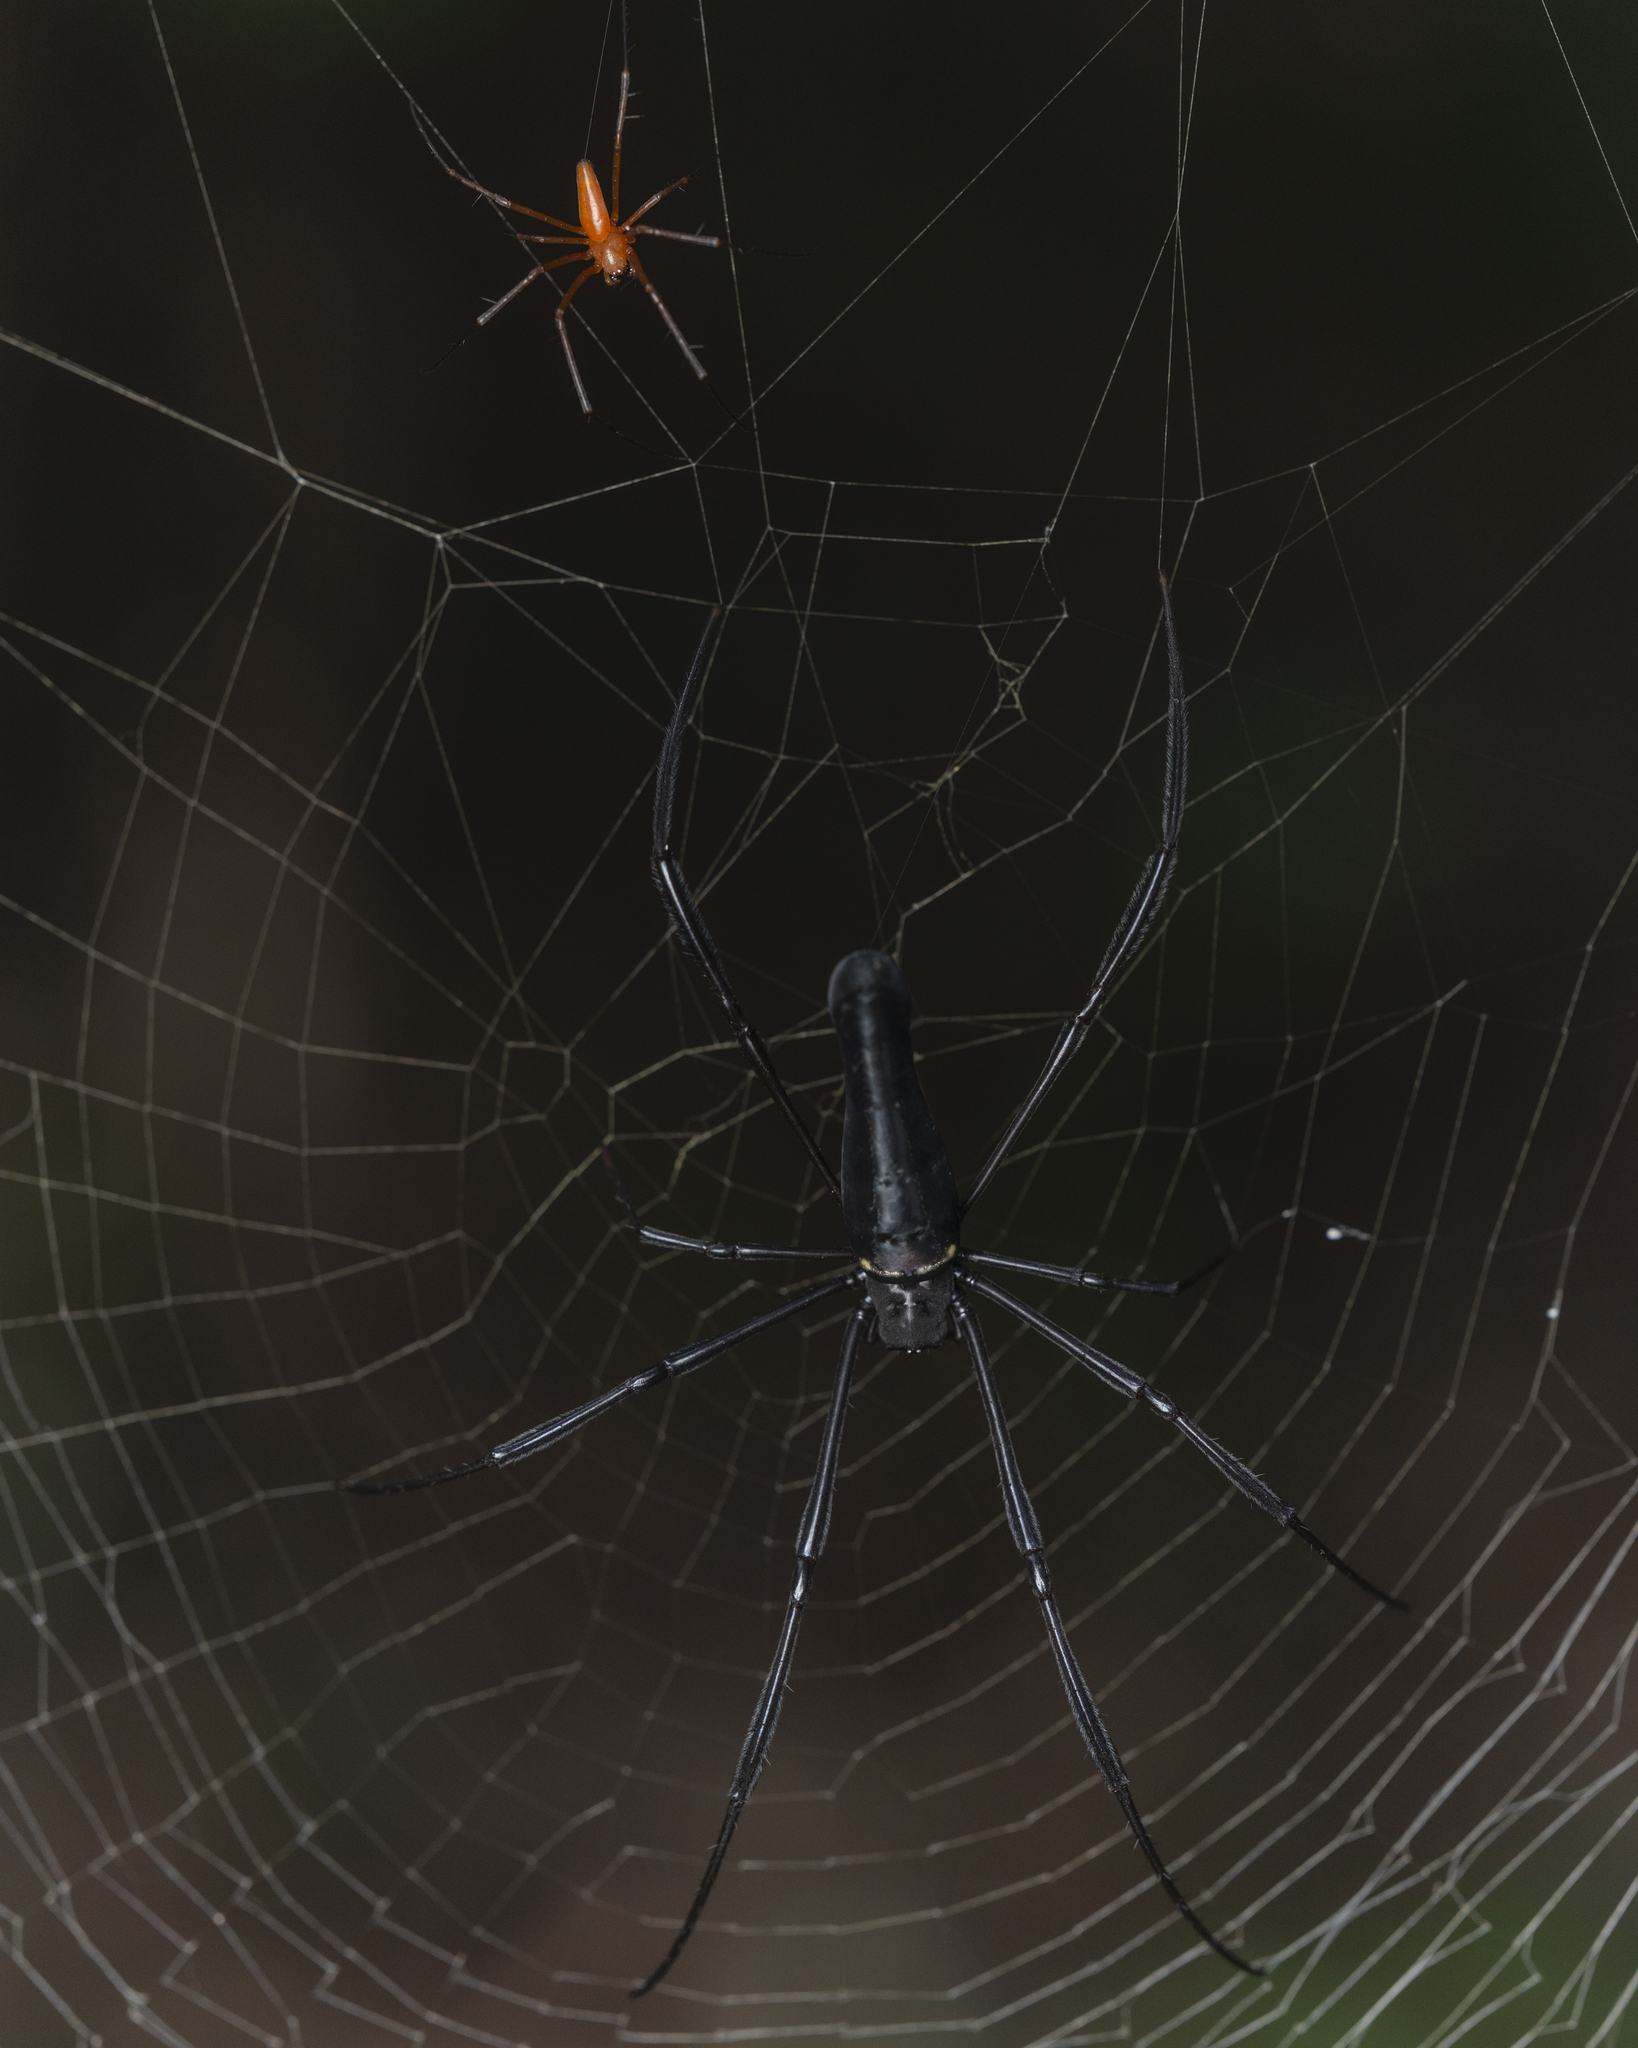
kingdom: Animalia
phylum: Arthropoda
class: Arachnida
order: Araneae
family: Araneidae
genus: Nephila
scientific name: Nephila pilipes
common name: Giant golden orb weaver
